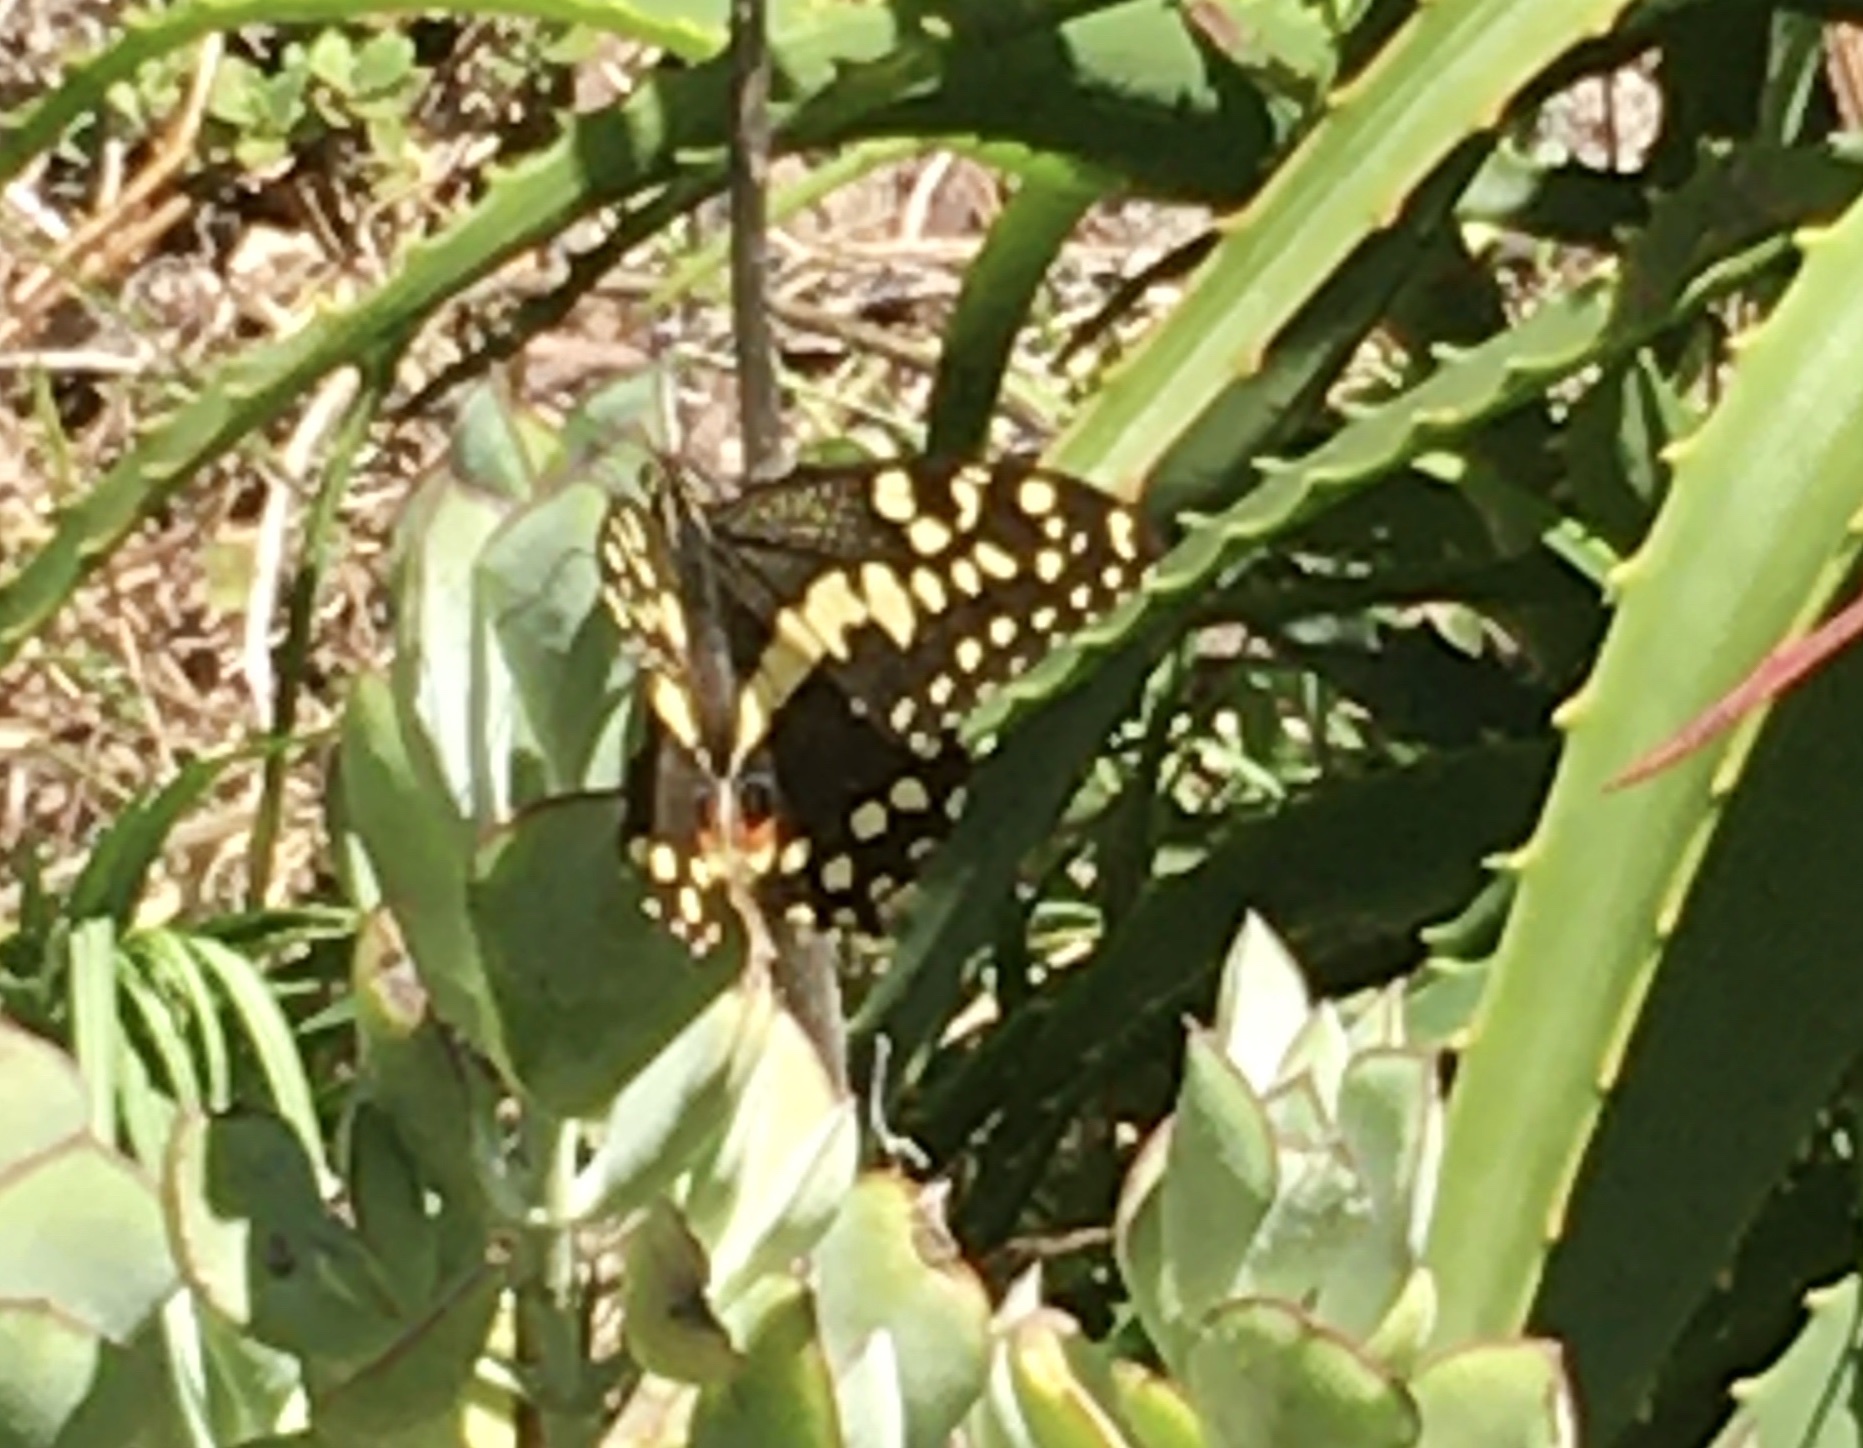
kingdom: Animalia
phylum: Arthropoda
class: Insecta
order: Lepidoptera
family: Papilionidae
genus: Papilio
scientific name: Papilio demodocus
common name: Christmas butterfly
